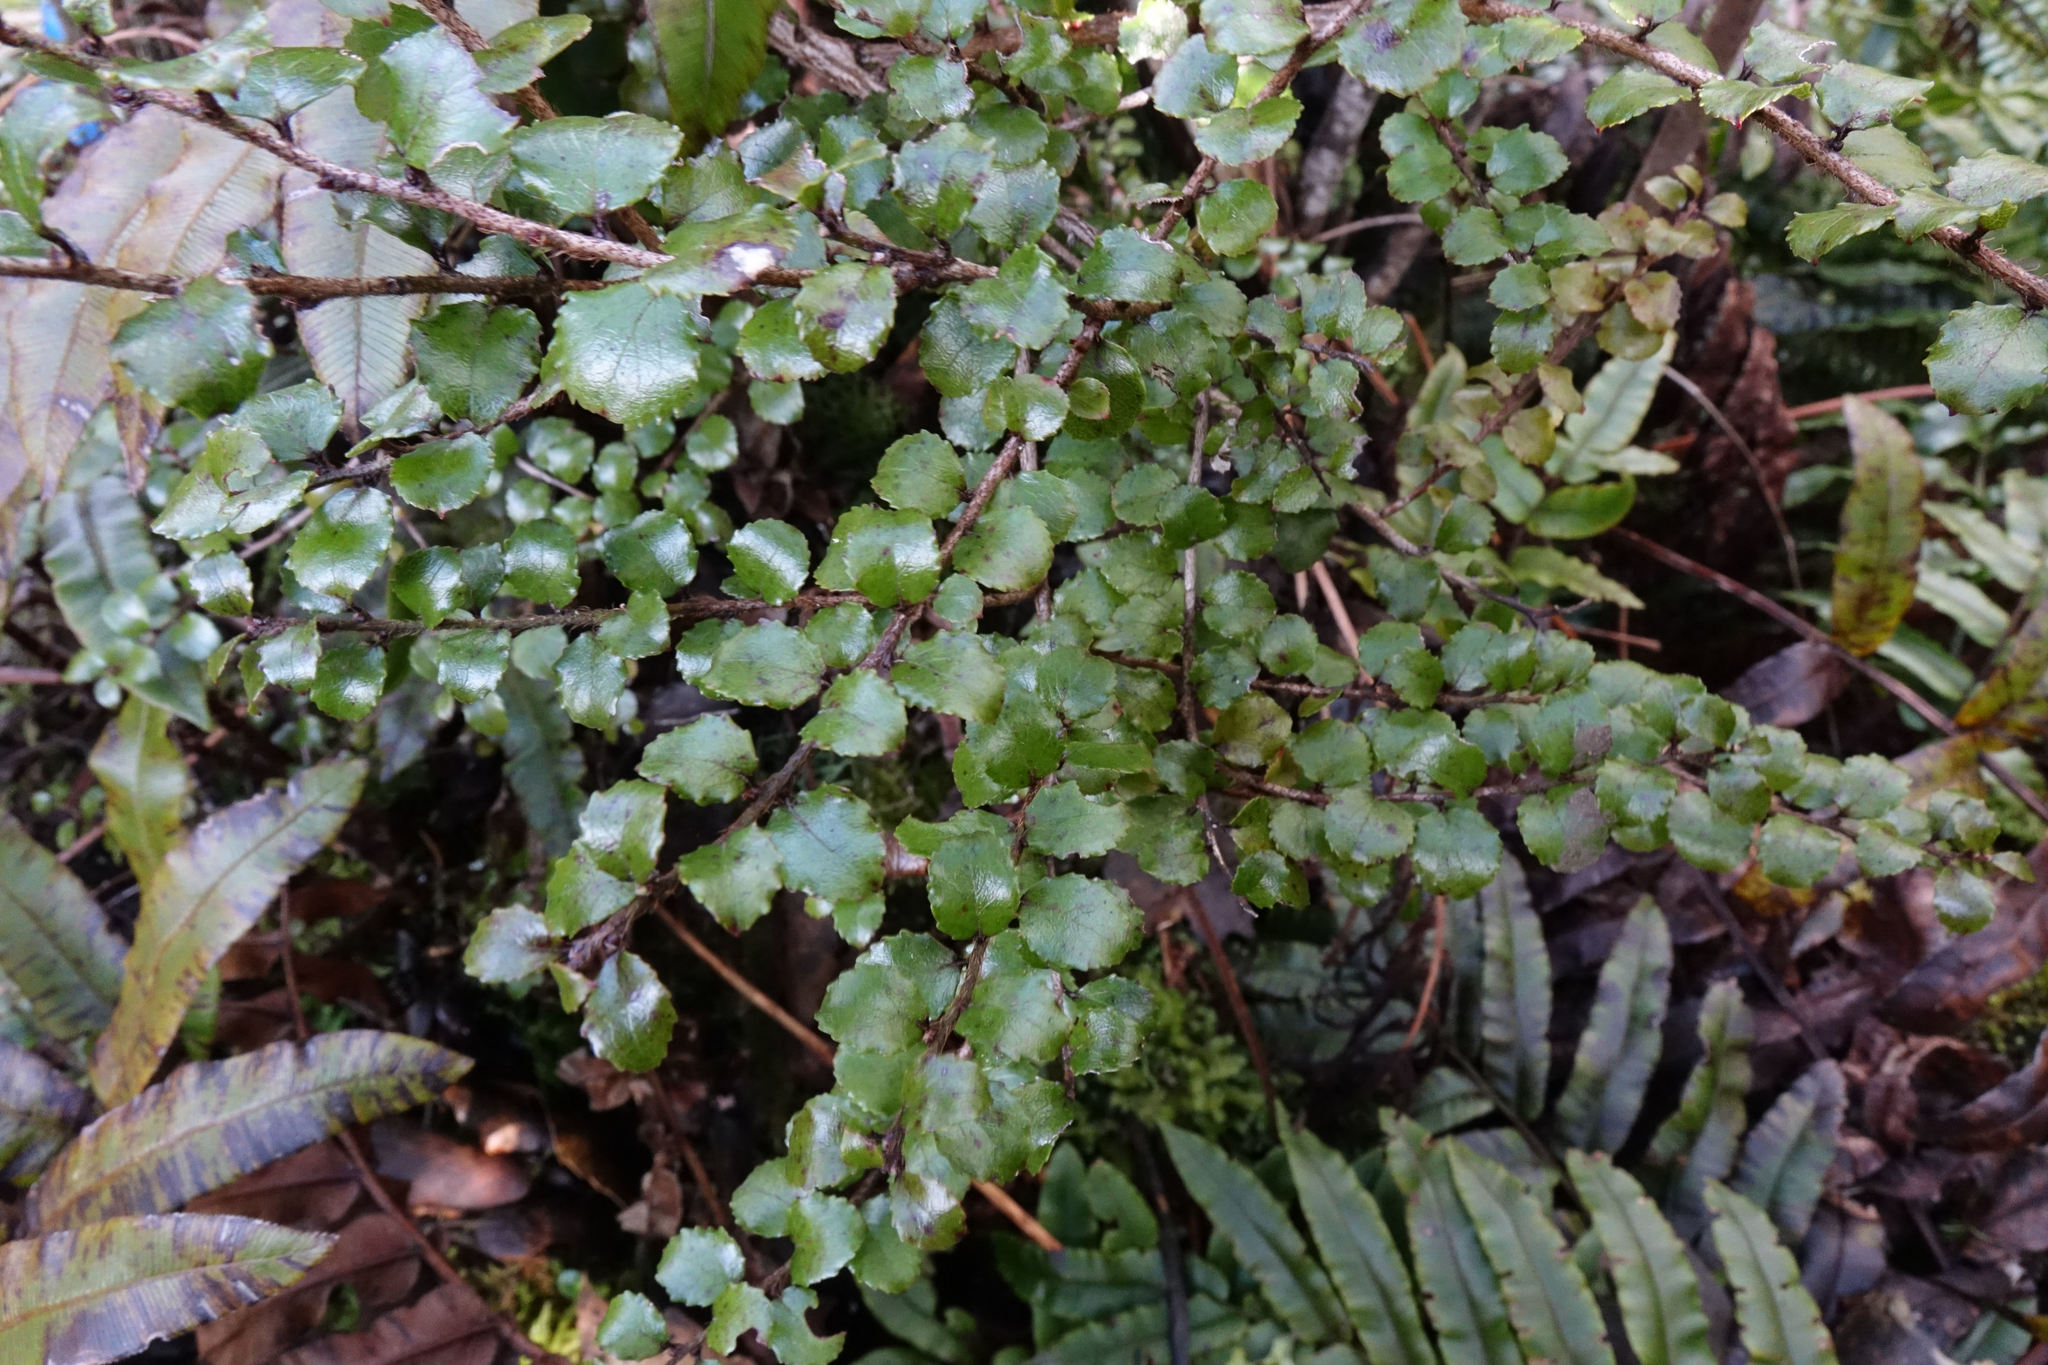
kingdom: Plantae
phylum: Tracheophyta
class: Magnoliopsida
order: Ericales
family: Ericaceae
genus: Gaultheria
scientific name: Gaultheria antipoda
